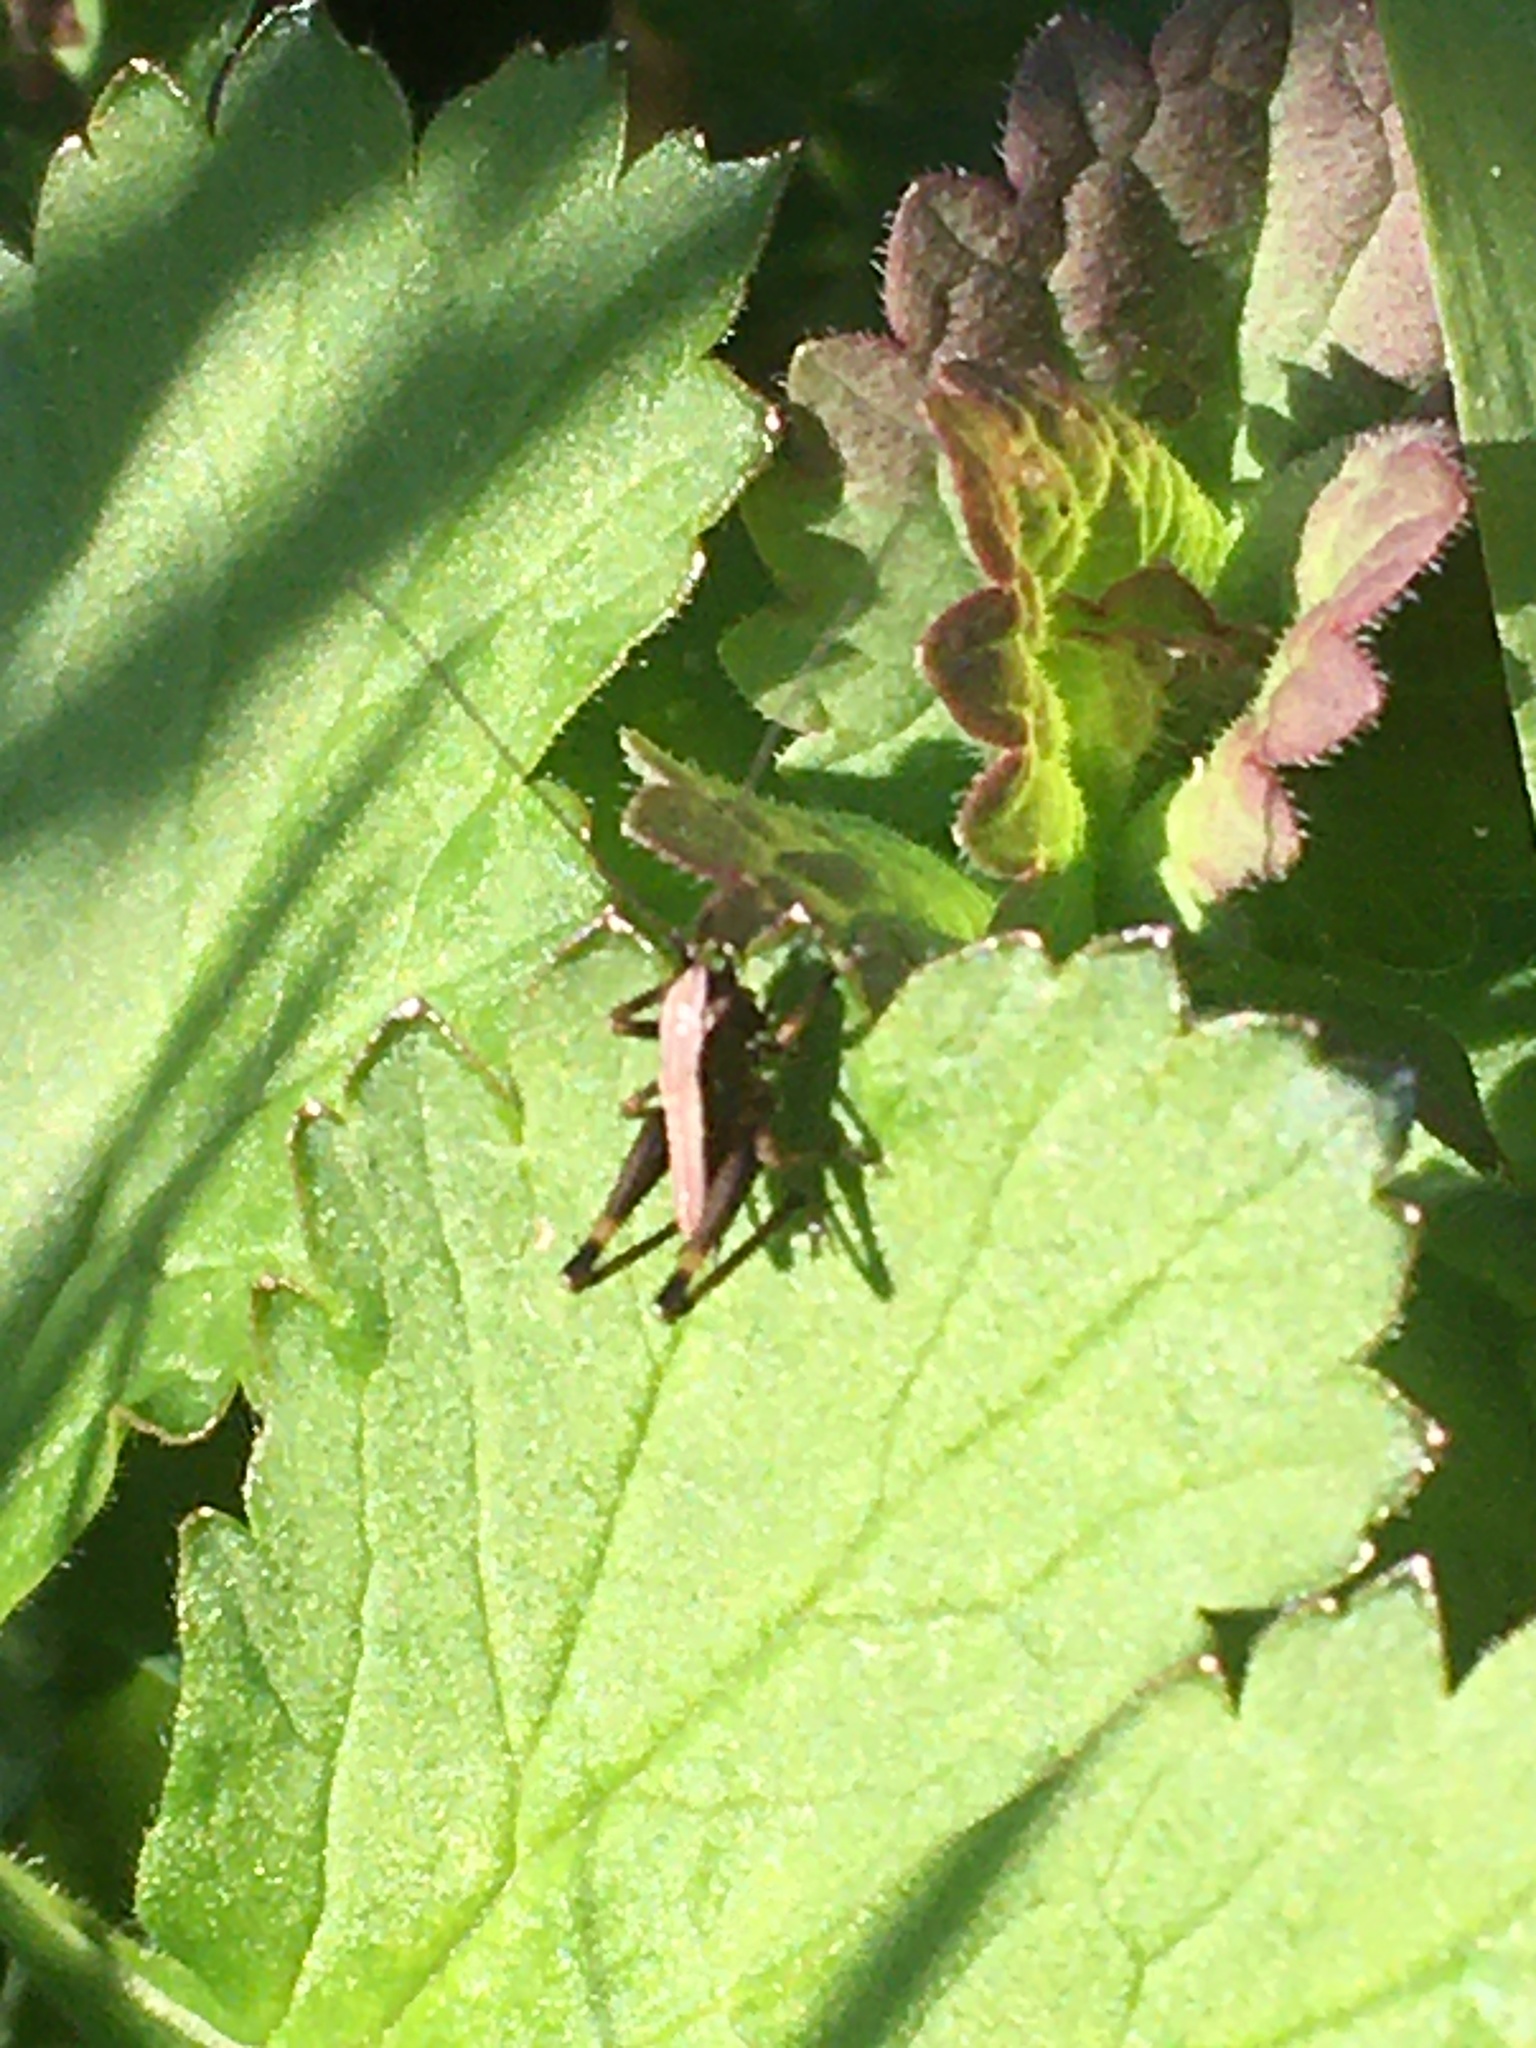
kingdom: Animalia
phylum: Arthropoda
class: Insecta
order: Orthoptera
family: Tettigoniidae
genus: Pholidoptera
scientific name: Pholidoptera griseoaptera
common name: Dark bush-cricket
